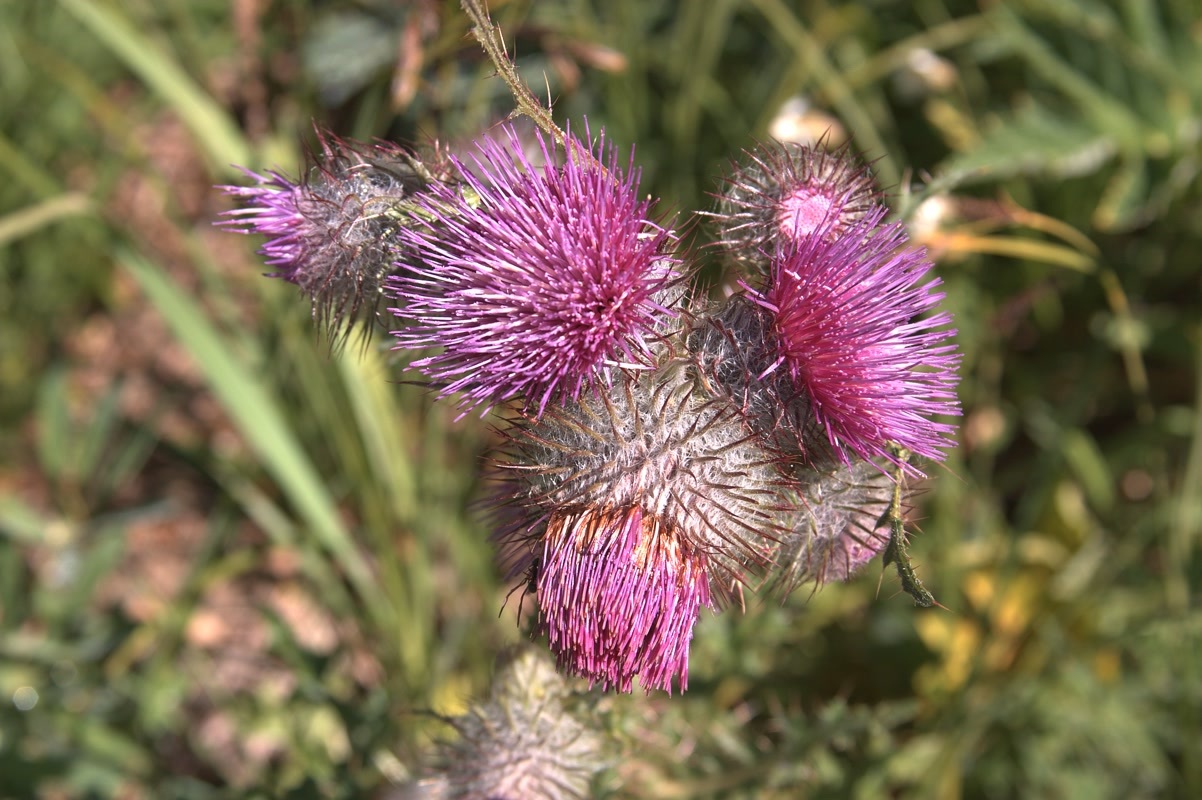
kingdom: Plantae
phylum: Tracheophyta
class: Magnoliopsida
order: Asterales
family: Asteraceae
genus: Cirsium
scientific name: Cirsium edule
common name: Indian thistle
